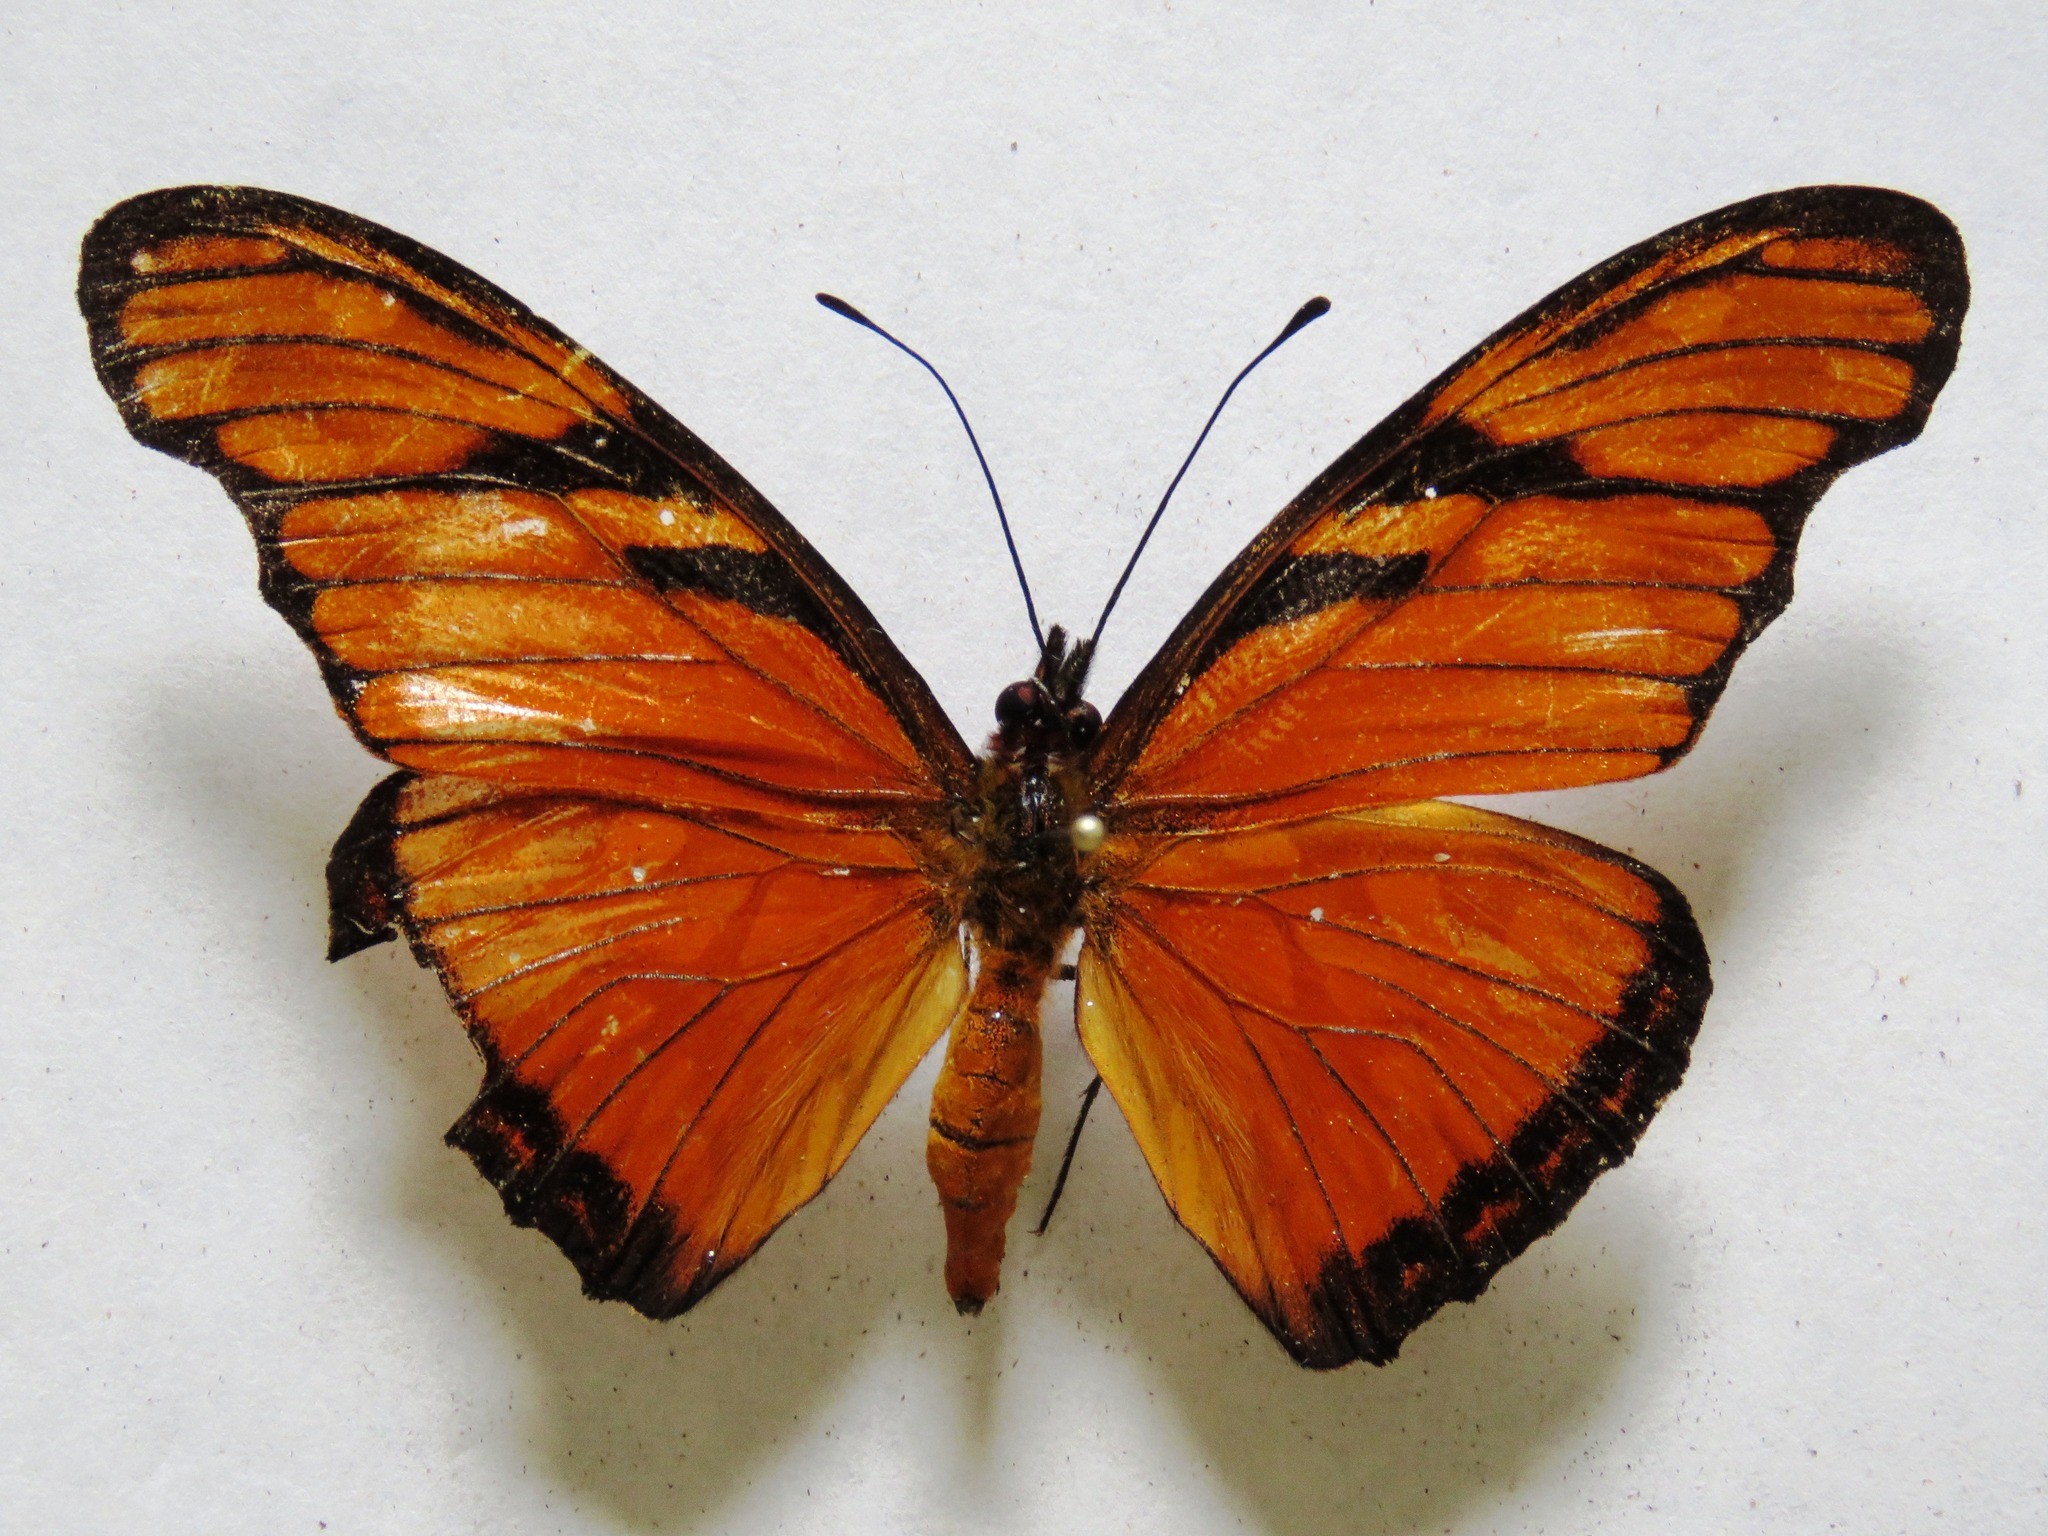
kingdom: Animalia
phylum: Arthropoda
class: Insecta
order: Lepidoptera
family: Nymphalidae
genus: Dione
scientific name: Dione juno
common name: Juno silverspot
